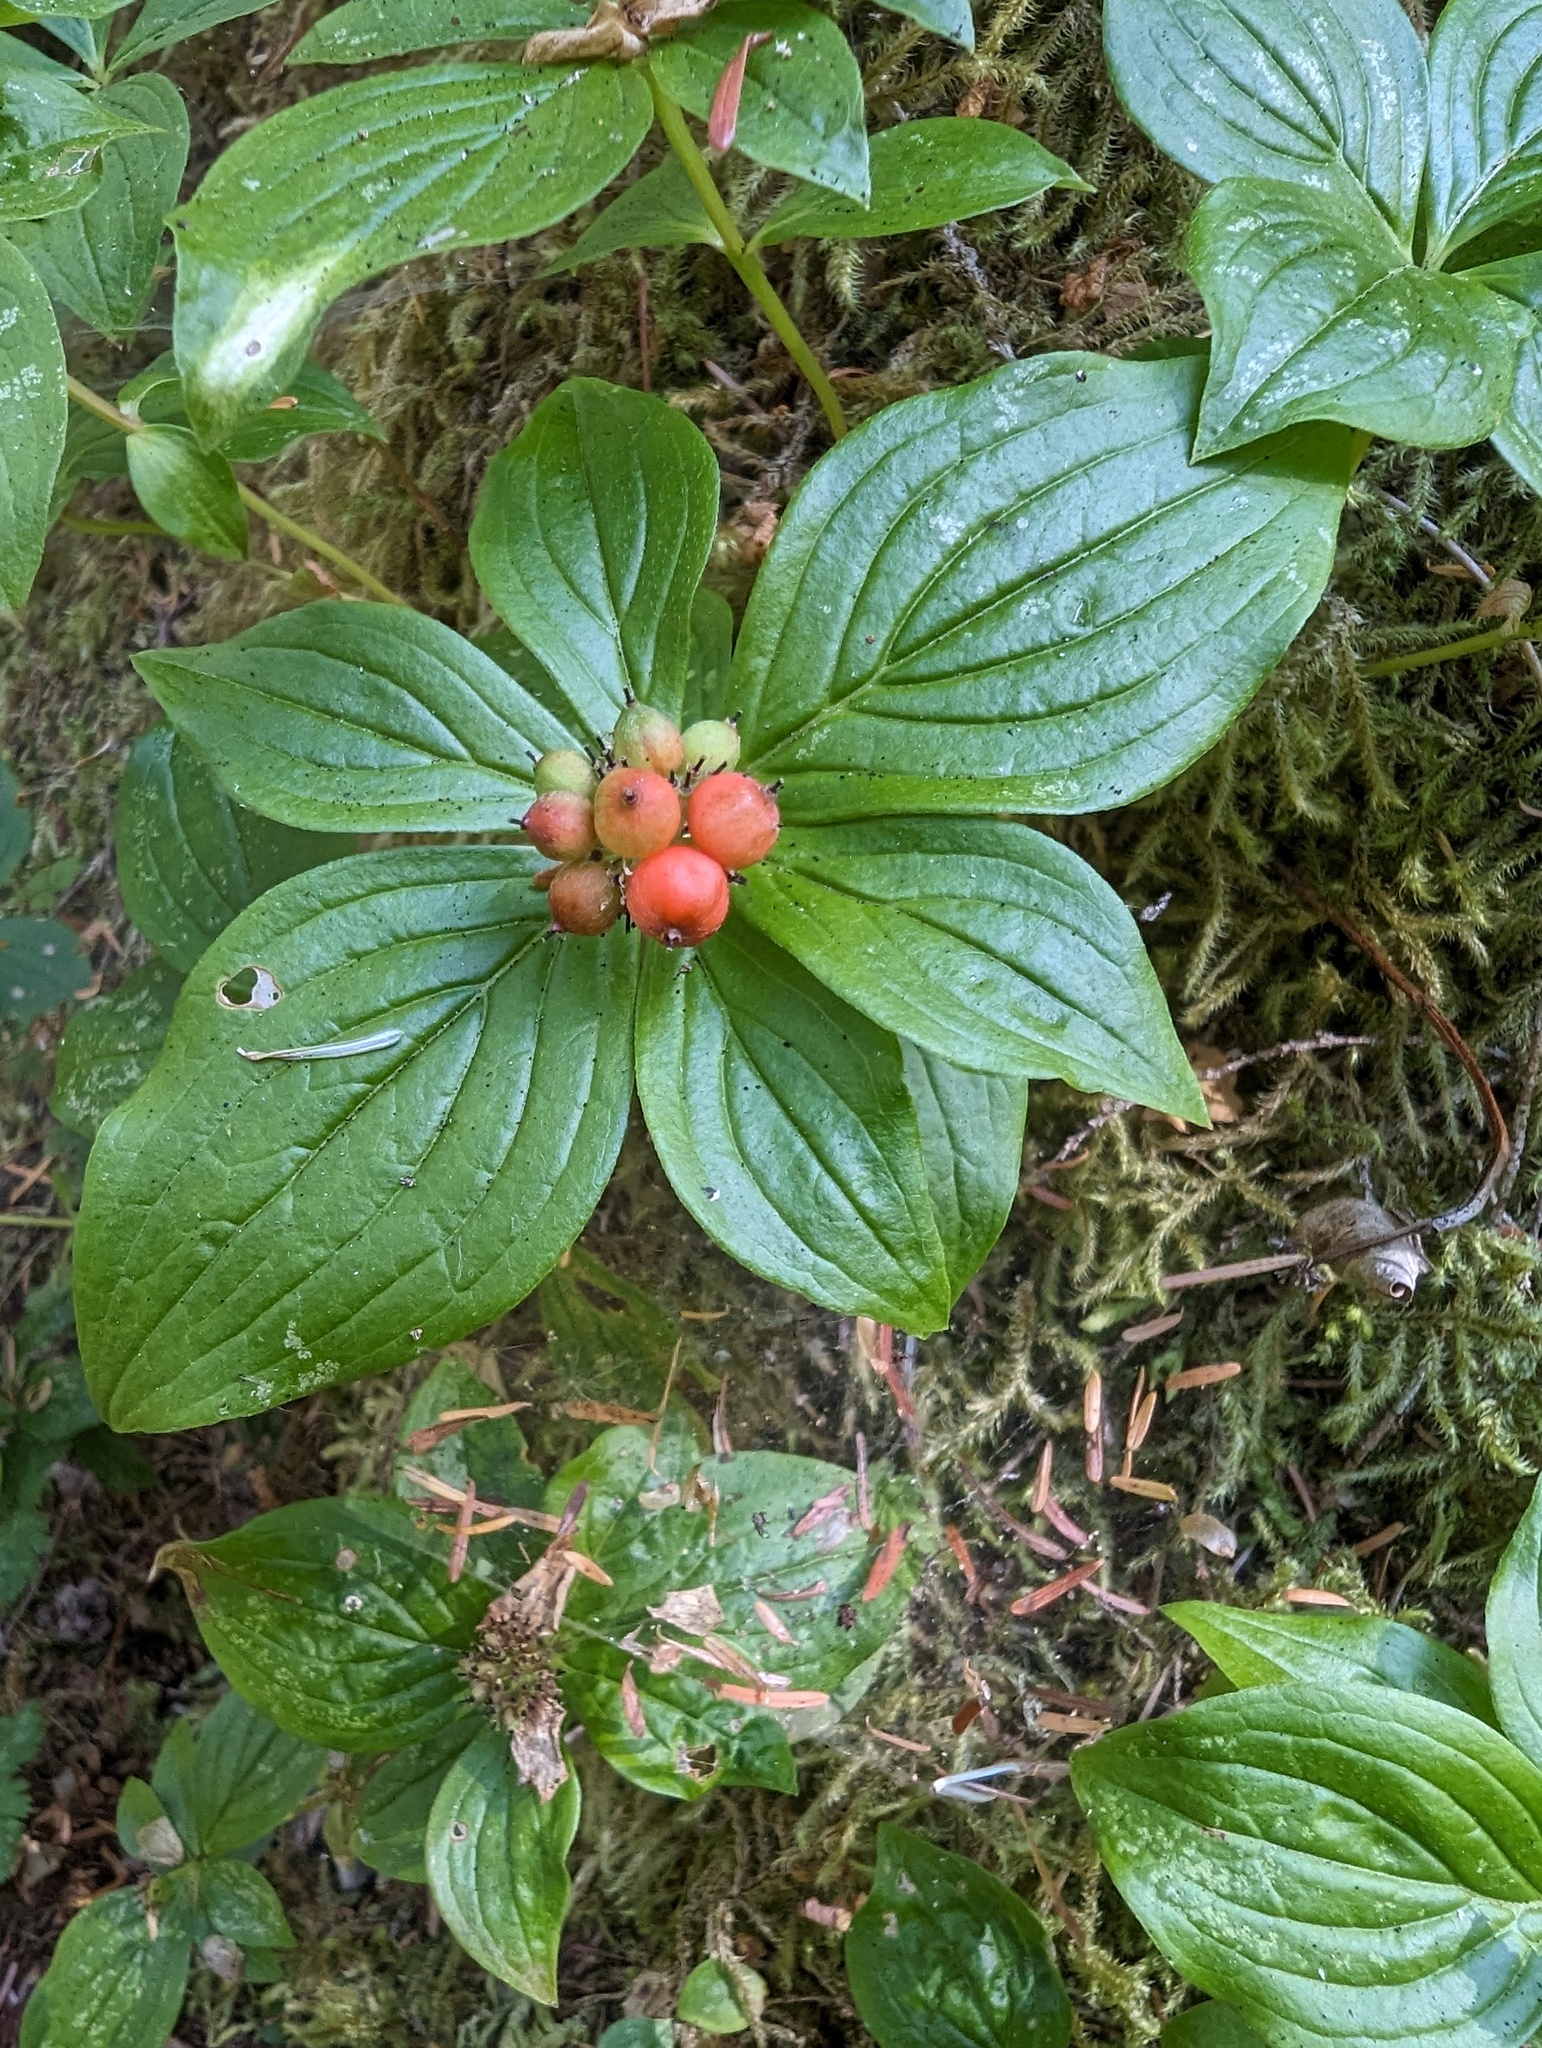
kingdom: Plantae
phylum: Tracheophyta
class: Magnoliopsida
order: Cornales
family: Cornaceae
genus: Cornus
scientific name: Cornus unalaschkensis
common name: Alaska bunchberry
